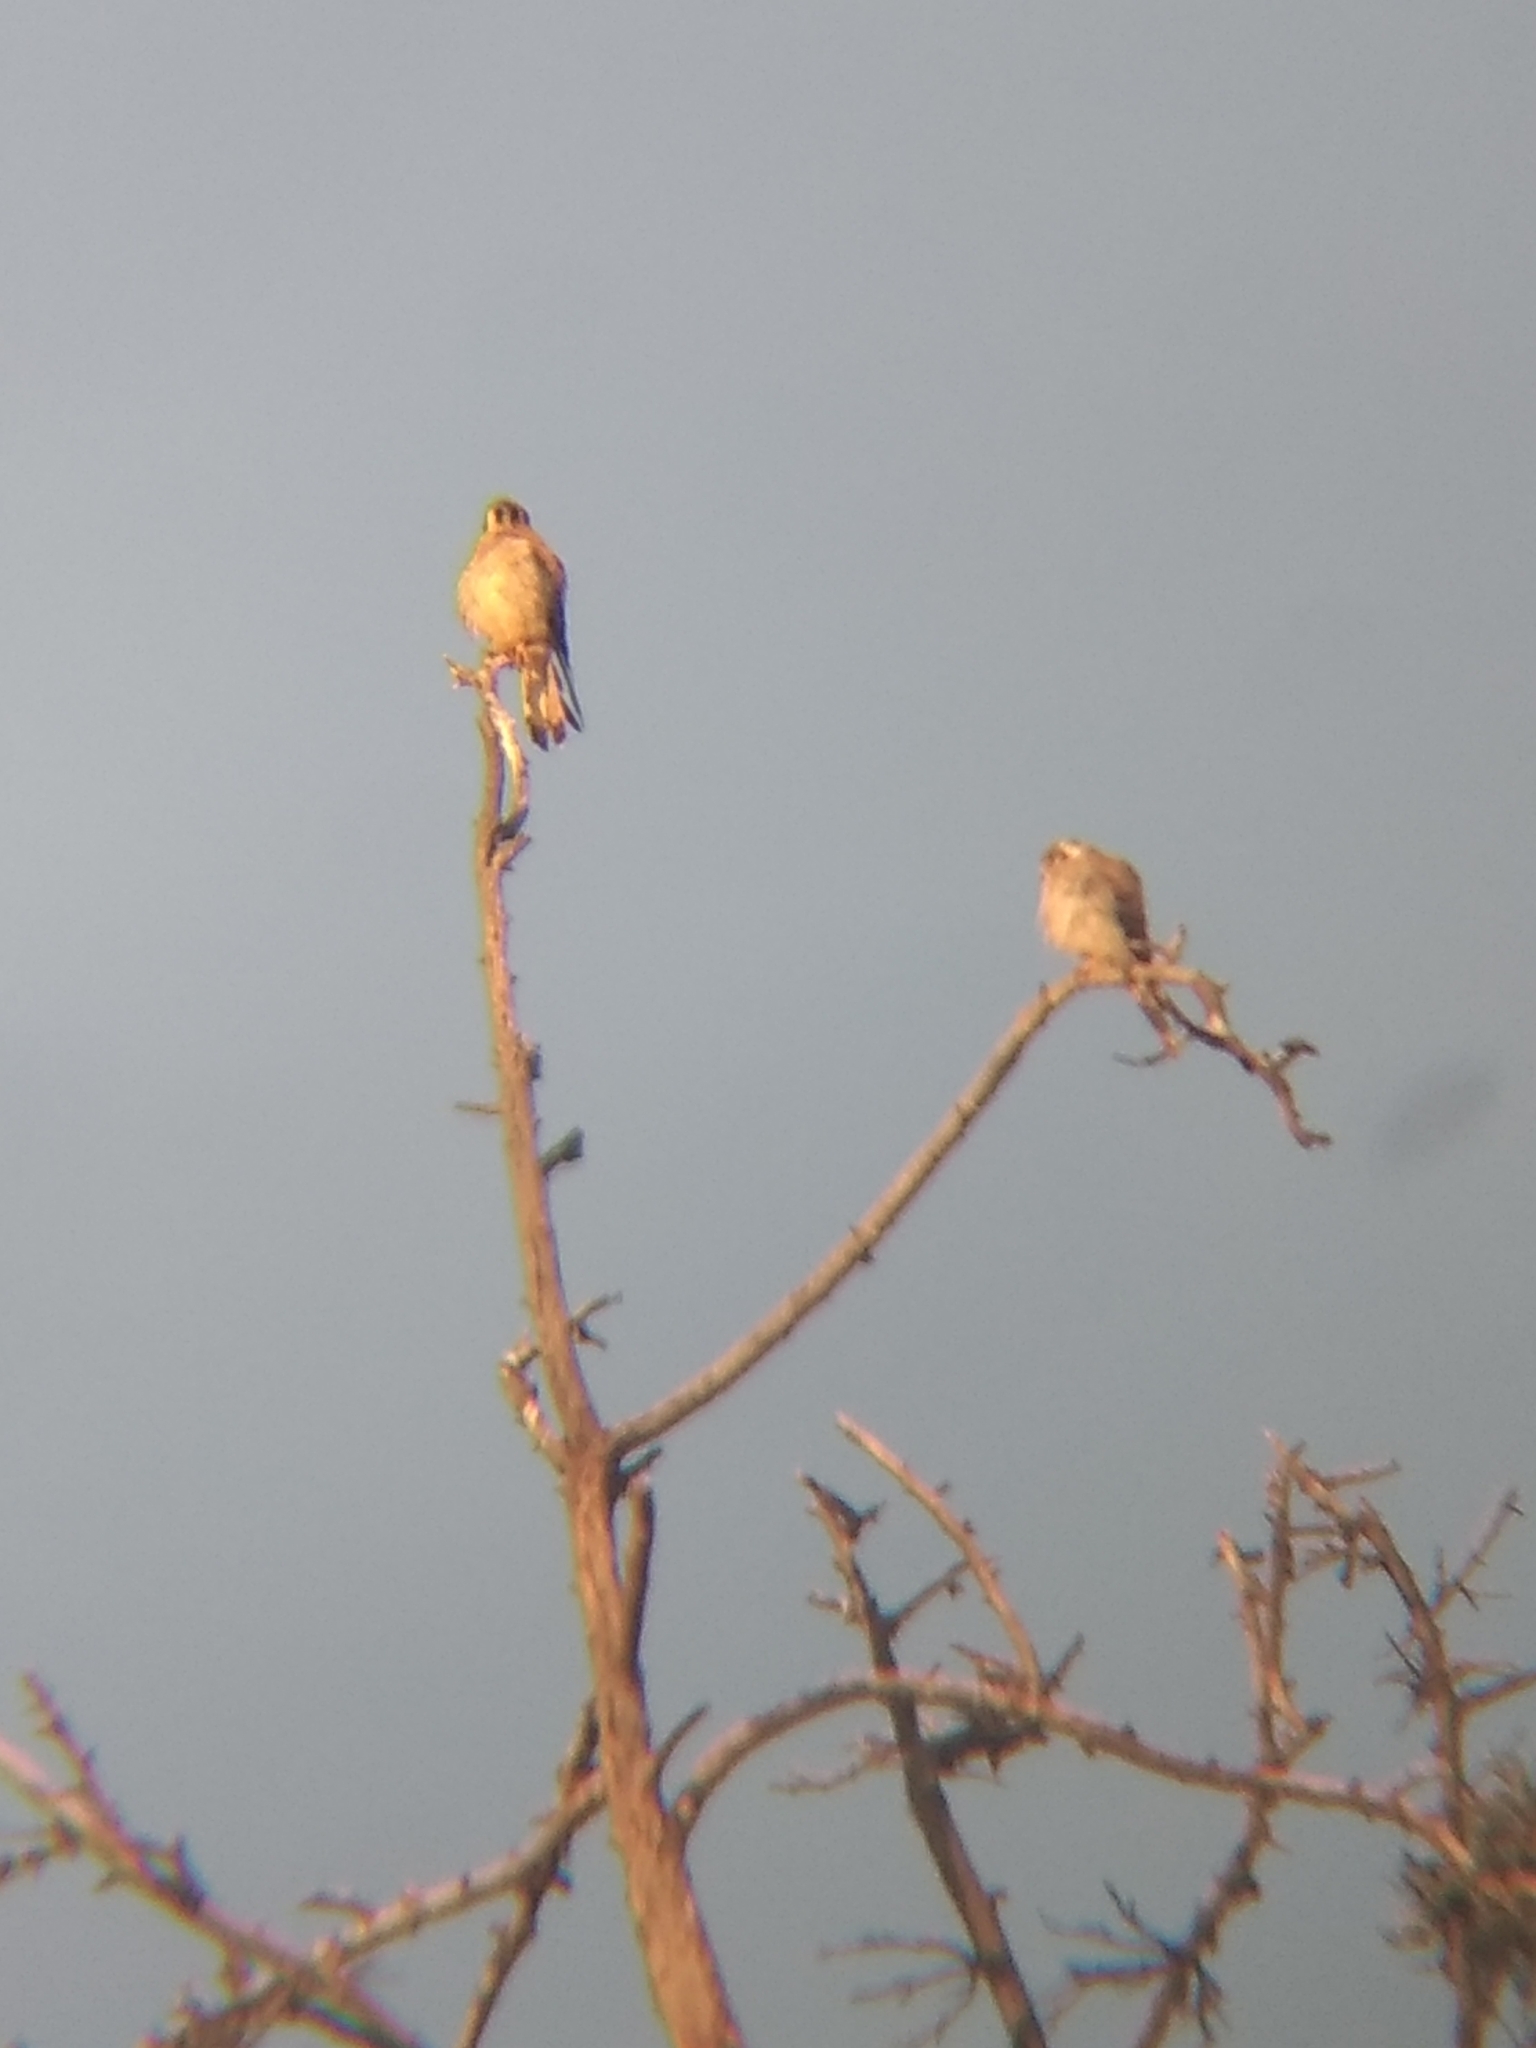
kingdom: Animalia
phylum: Chordata
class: Aves
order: Falconiformes
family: Falconidae
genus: Falco
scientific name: Falco sparverius
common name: American kestrel
